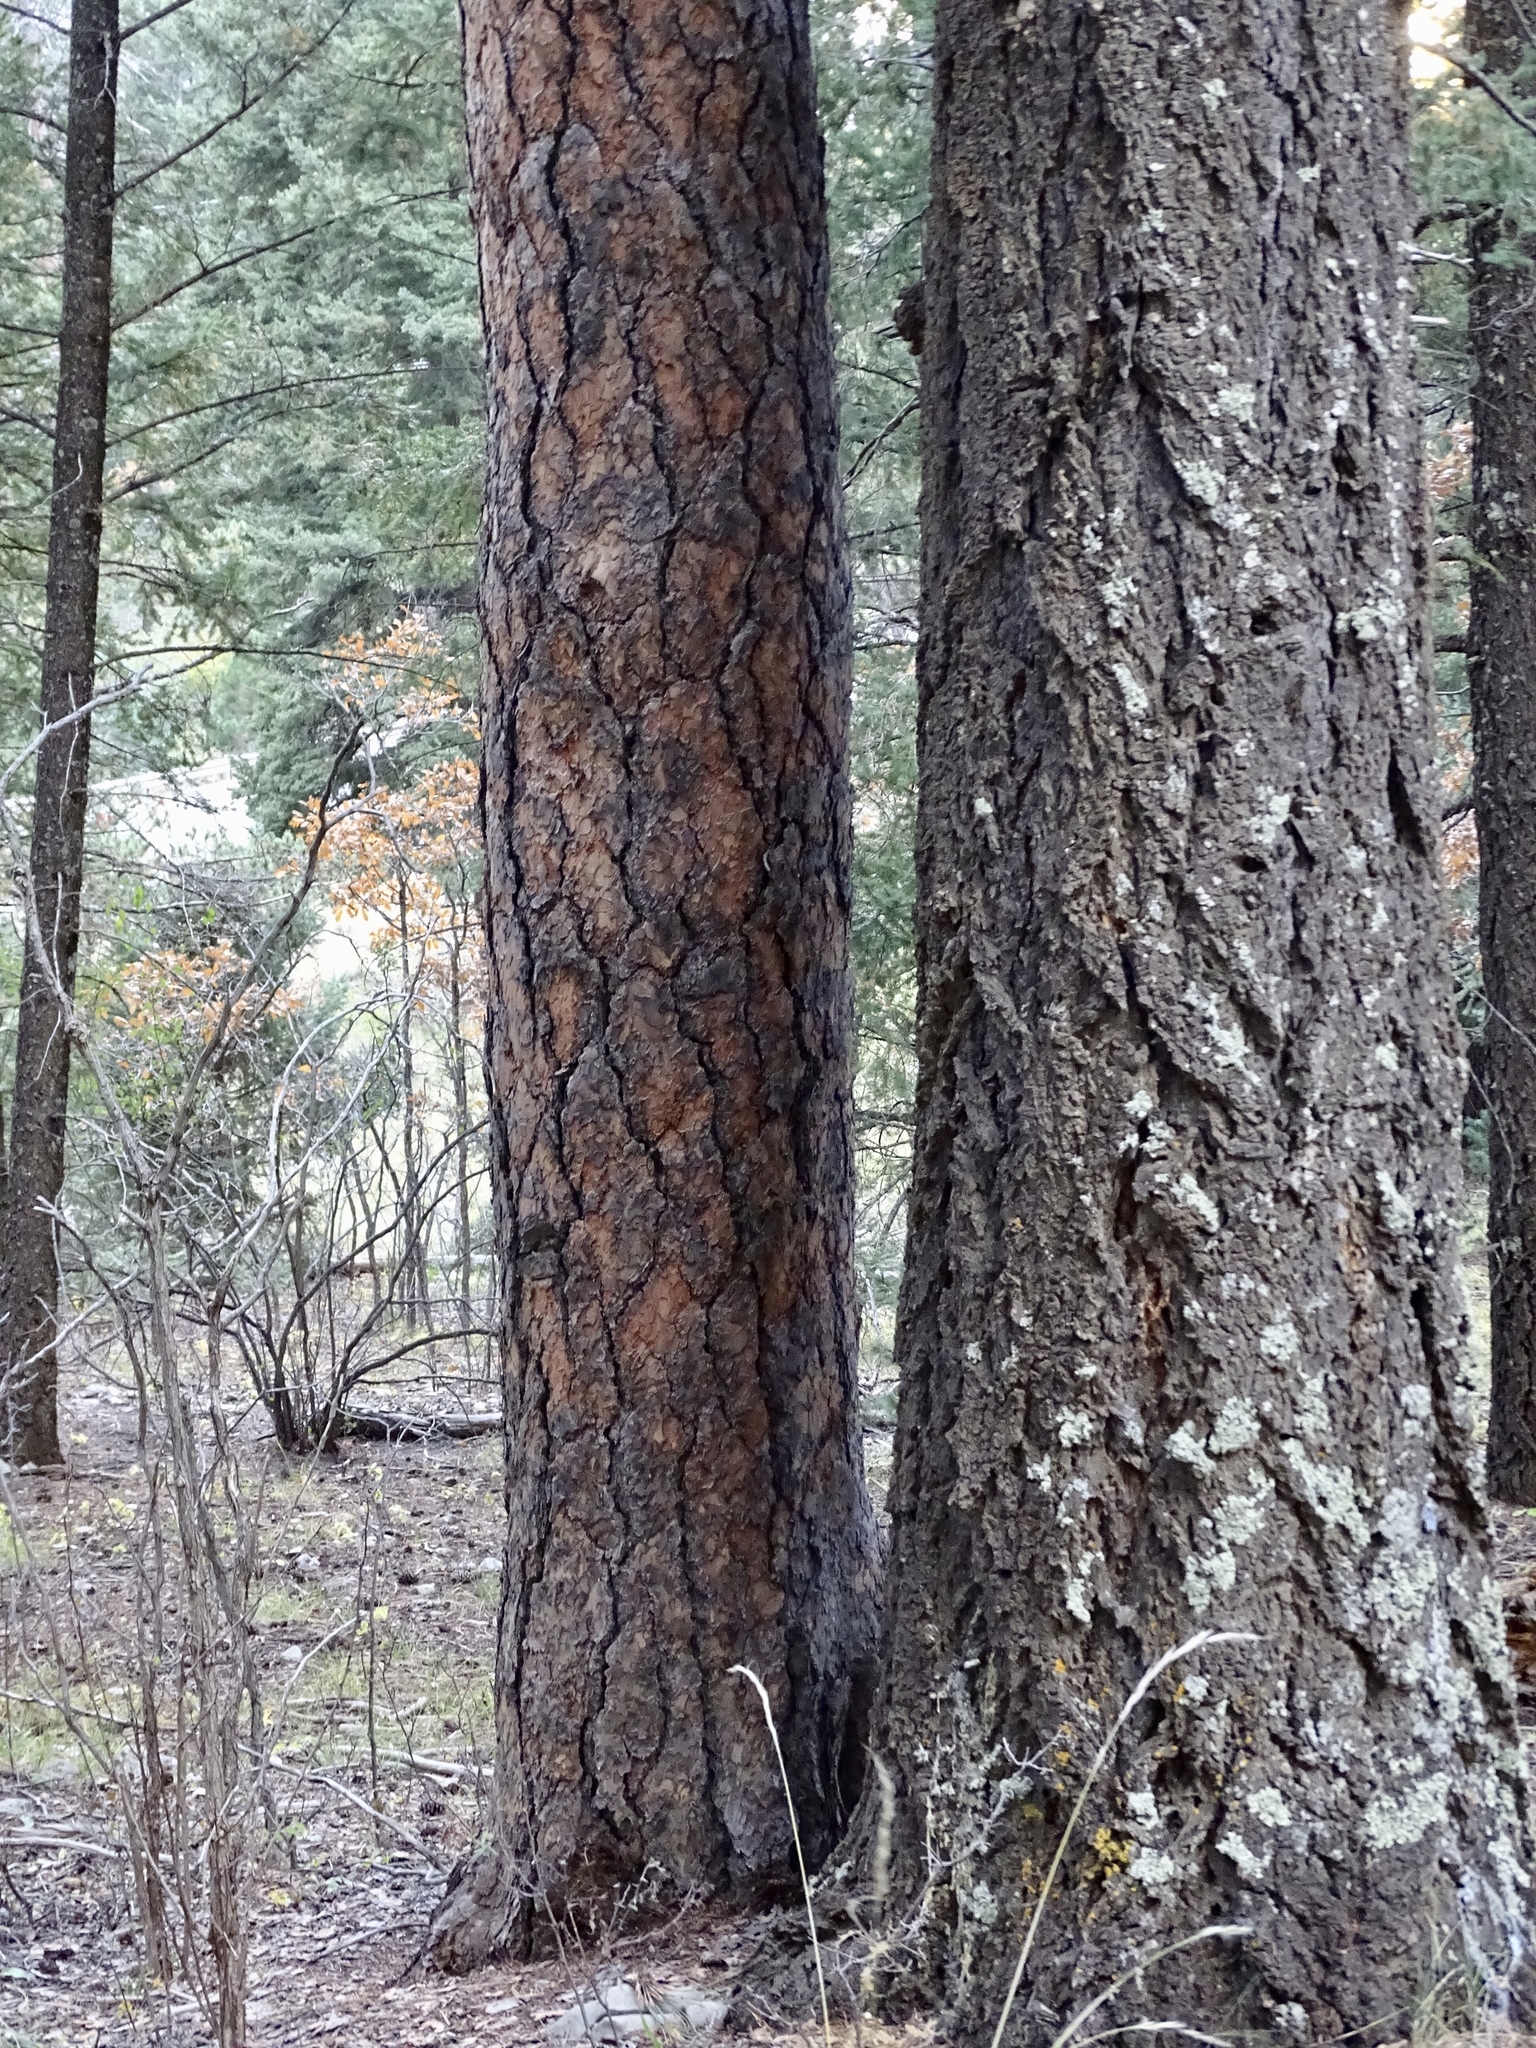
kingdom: Plantae
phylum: Tracheophyta
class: Pinopsida
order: Pinales
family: Pinaceae
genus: Pinus
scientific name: Pinus ponderosa
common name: Western yellow-pine
